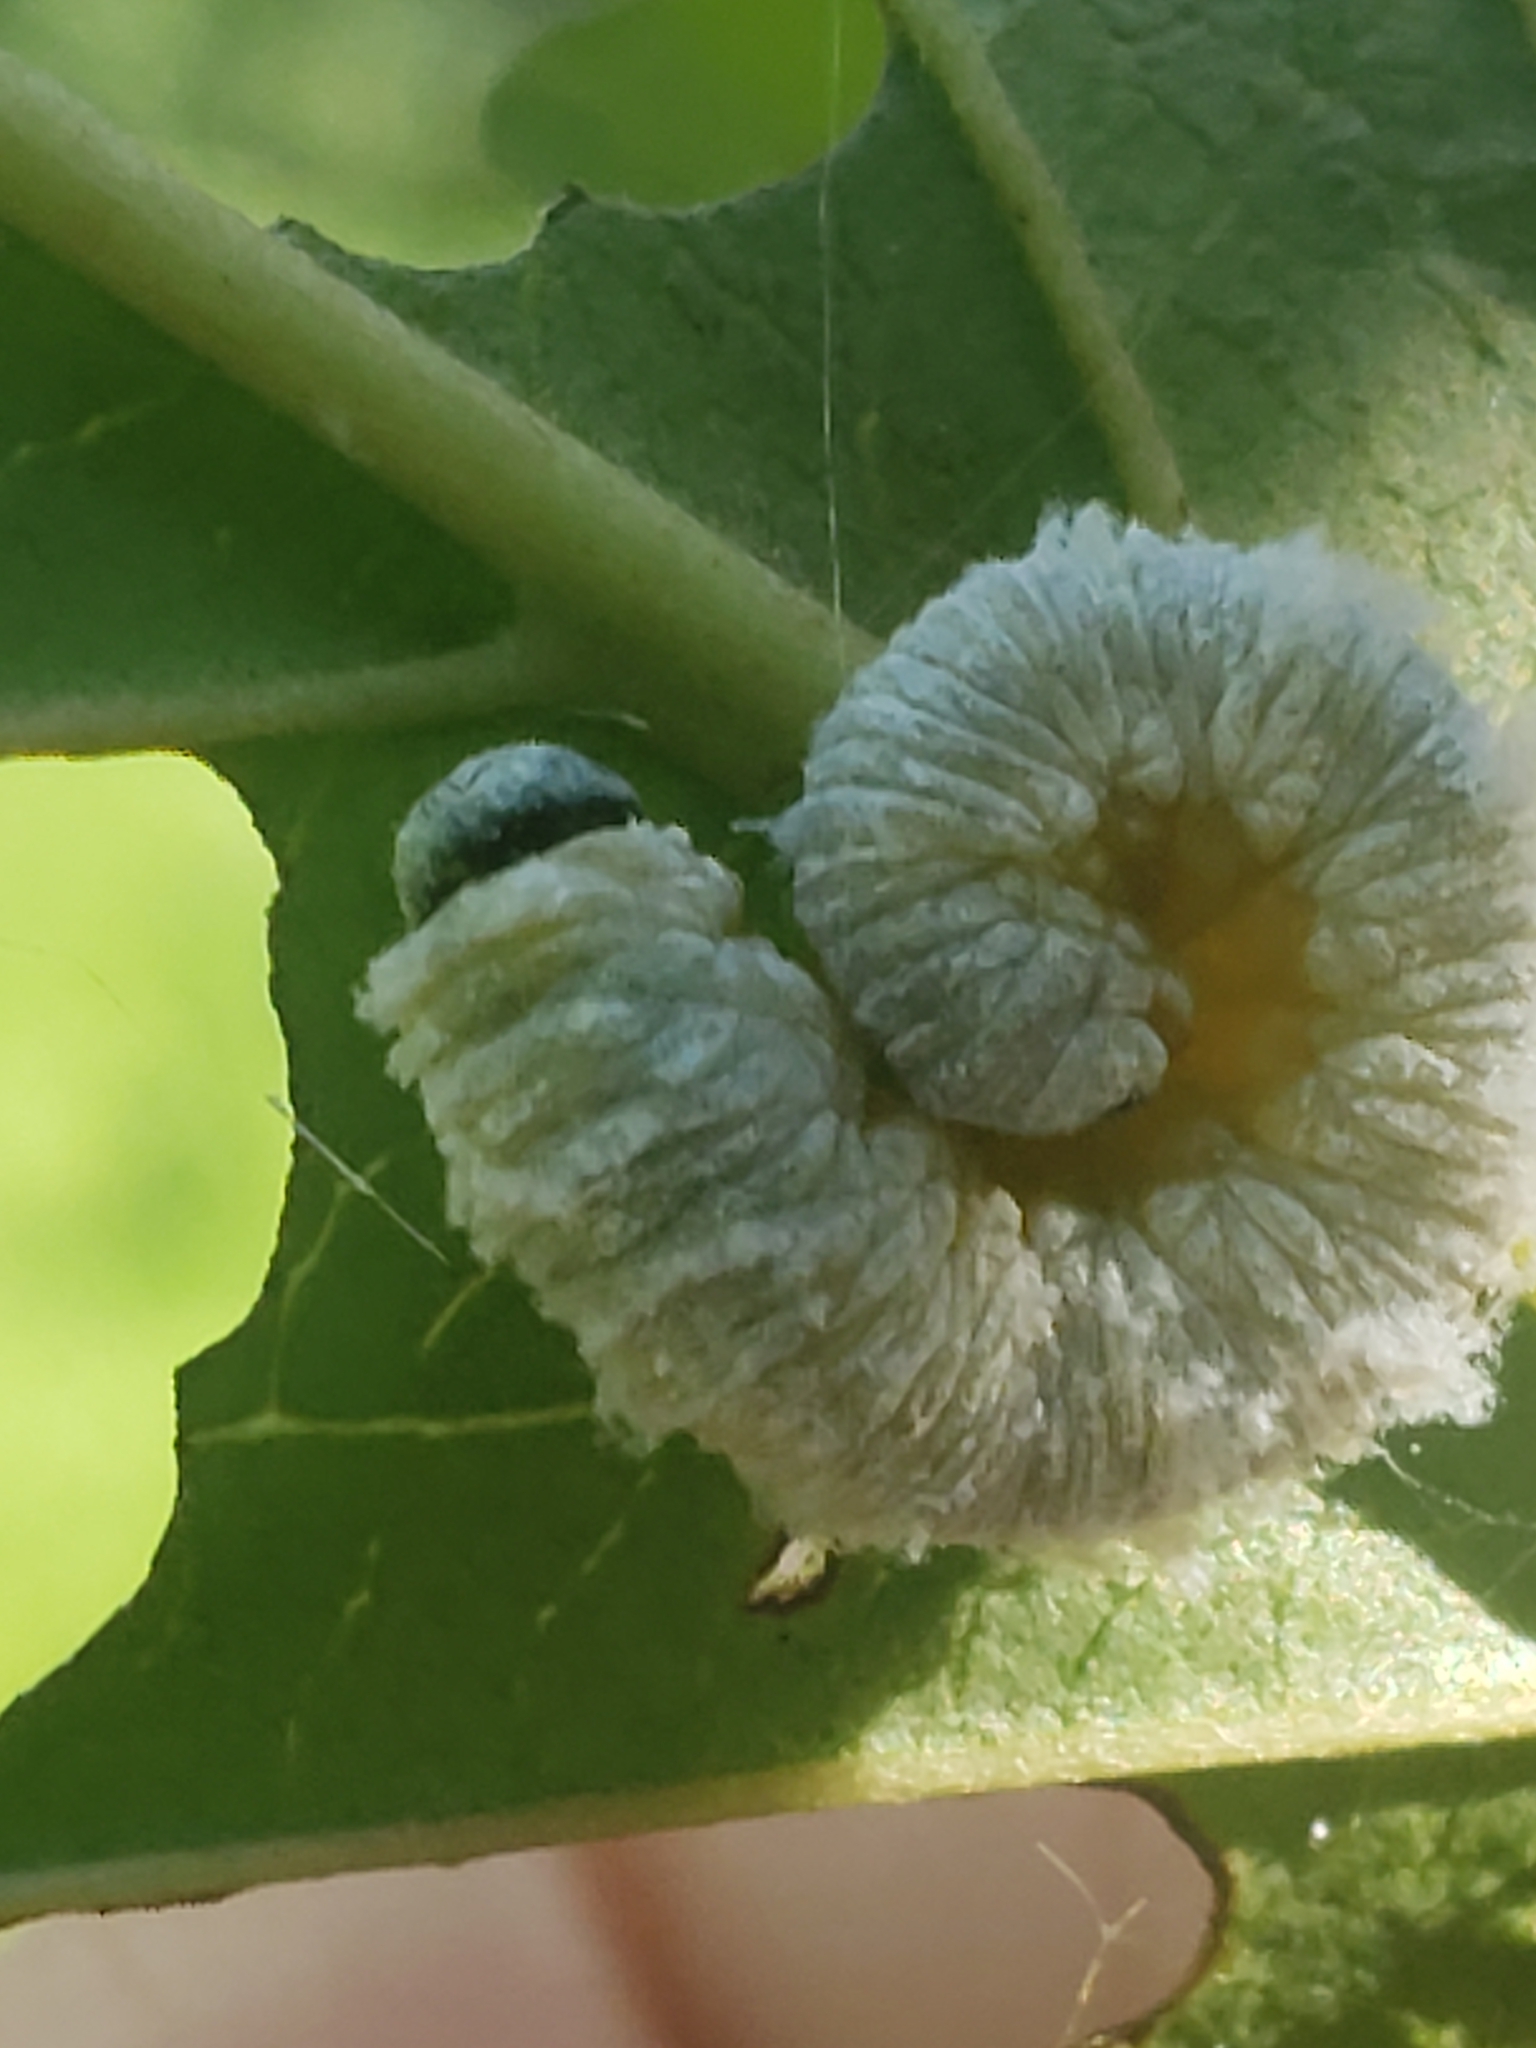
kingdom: Animalia
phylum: Arthropoda
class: Insecta
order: Hymenoptera
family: Tenthredinidae
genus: Macremphytus
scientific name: Macremphytus testaceus
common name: Dogwood sawfly
